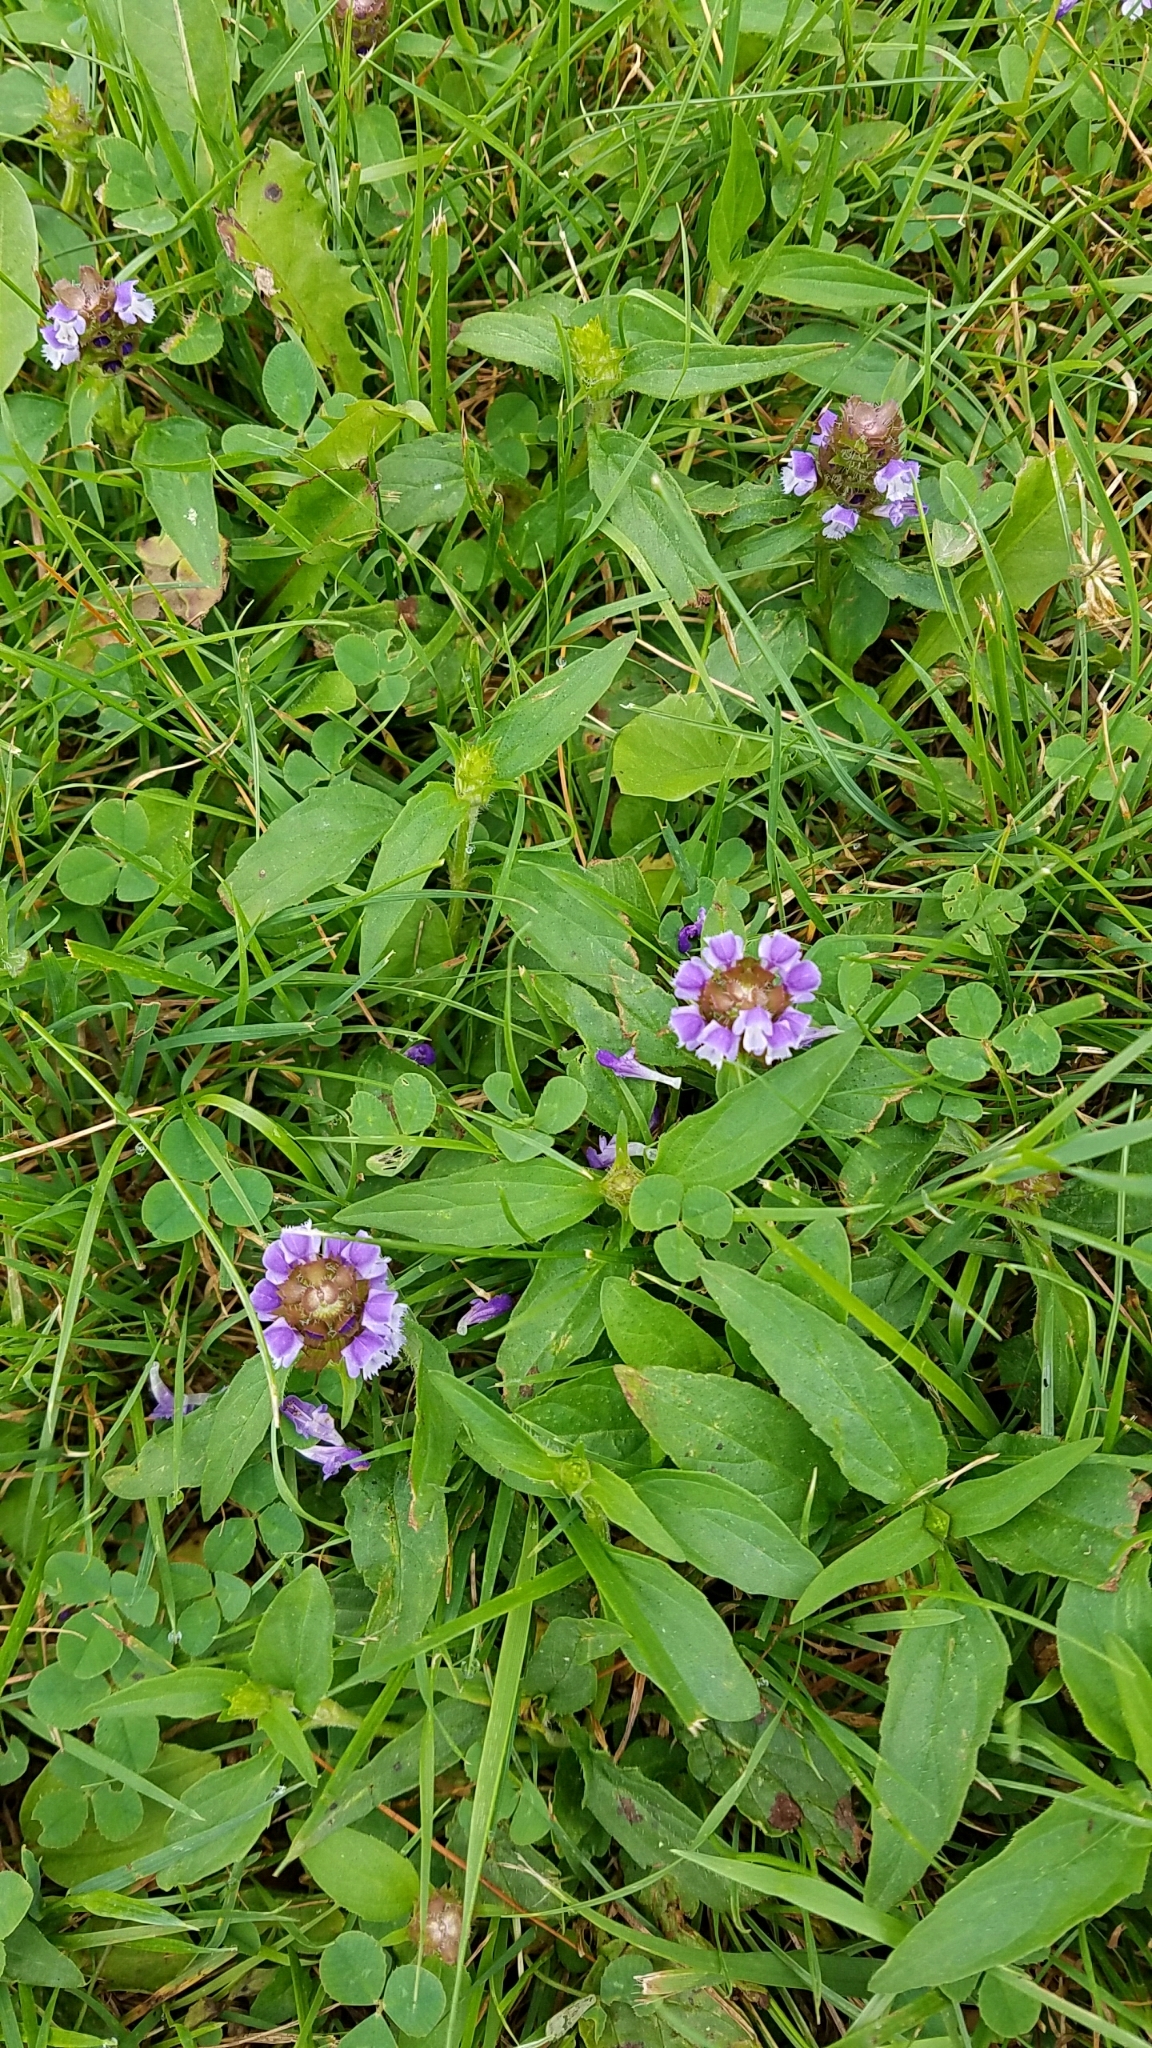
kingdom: Plantae
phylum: Tracheophyta
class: Magnoliopsida
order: Lamiales
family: Lamiaceae
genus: Prunella
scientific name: Prunella vulgaris
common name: Heal-all
